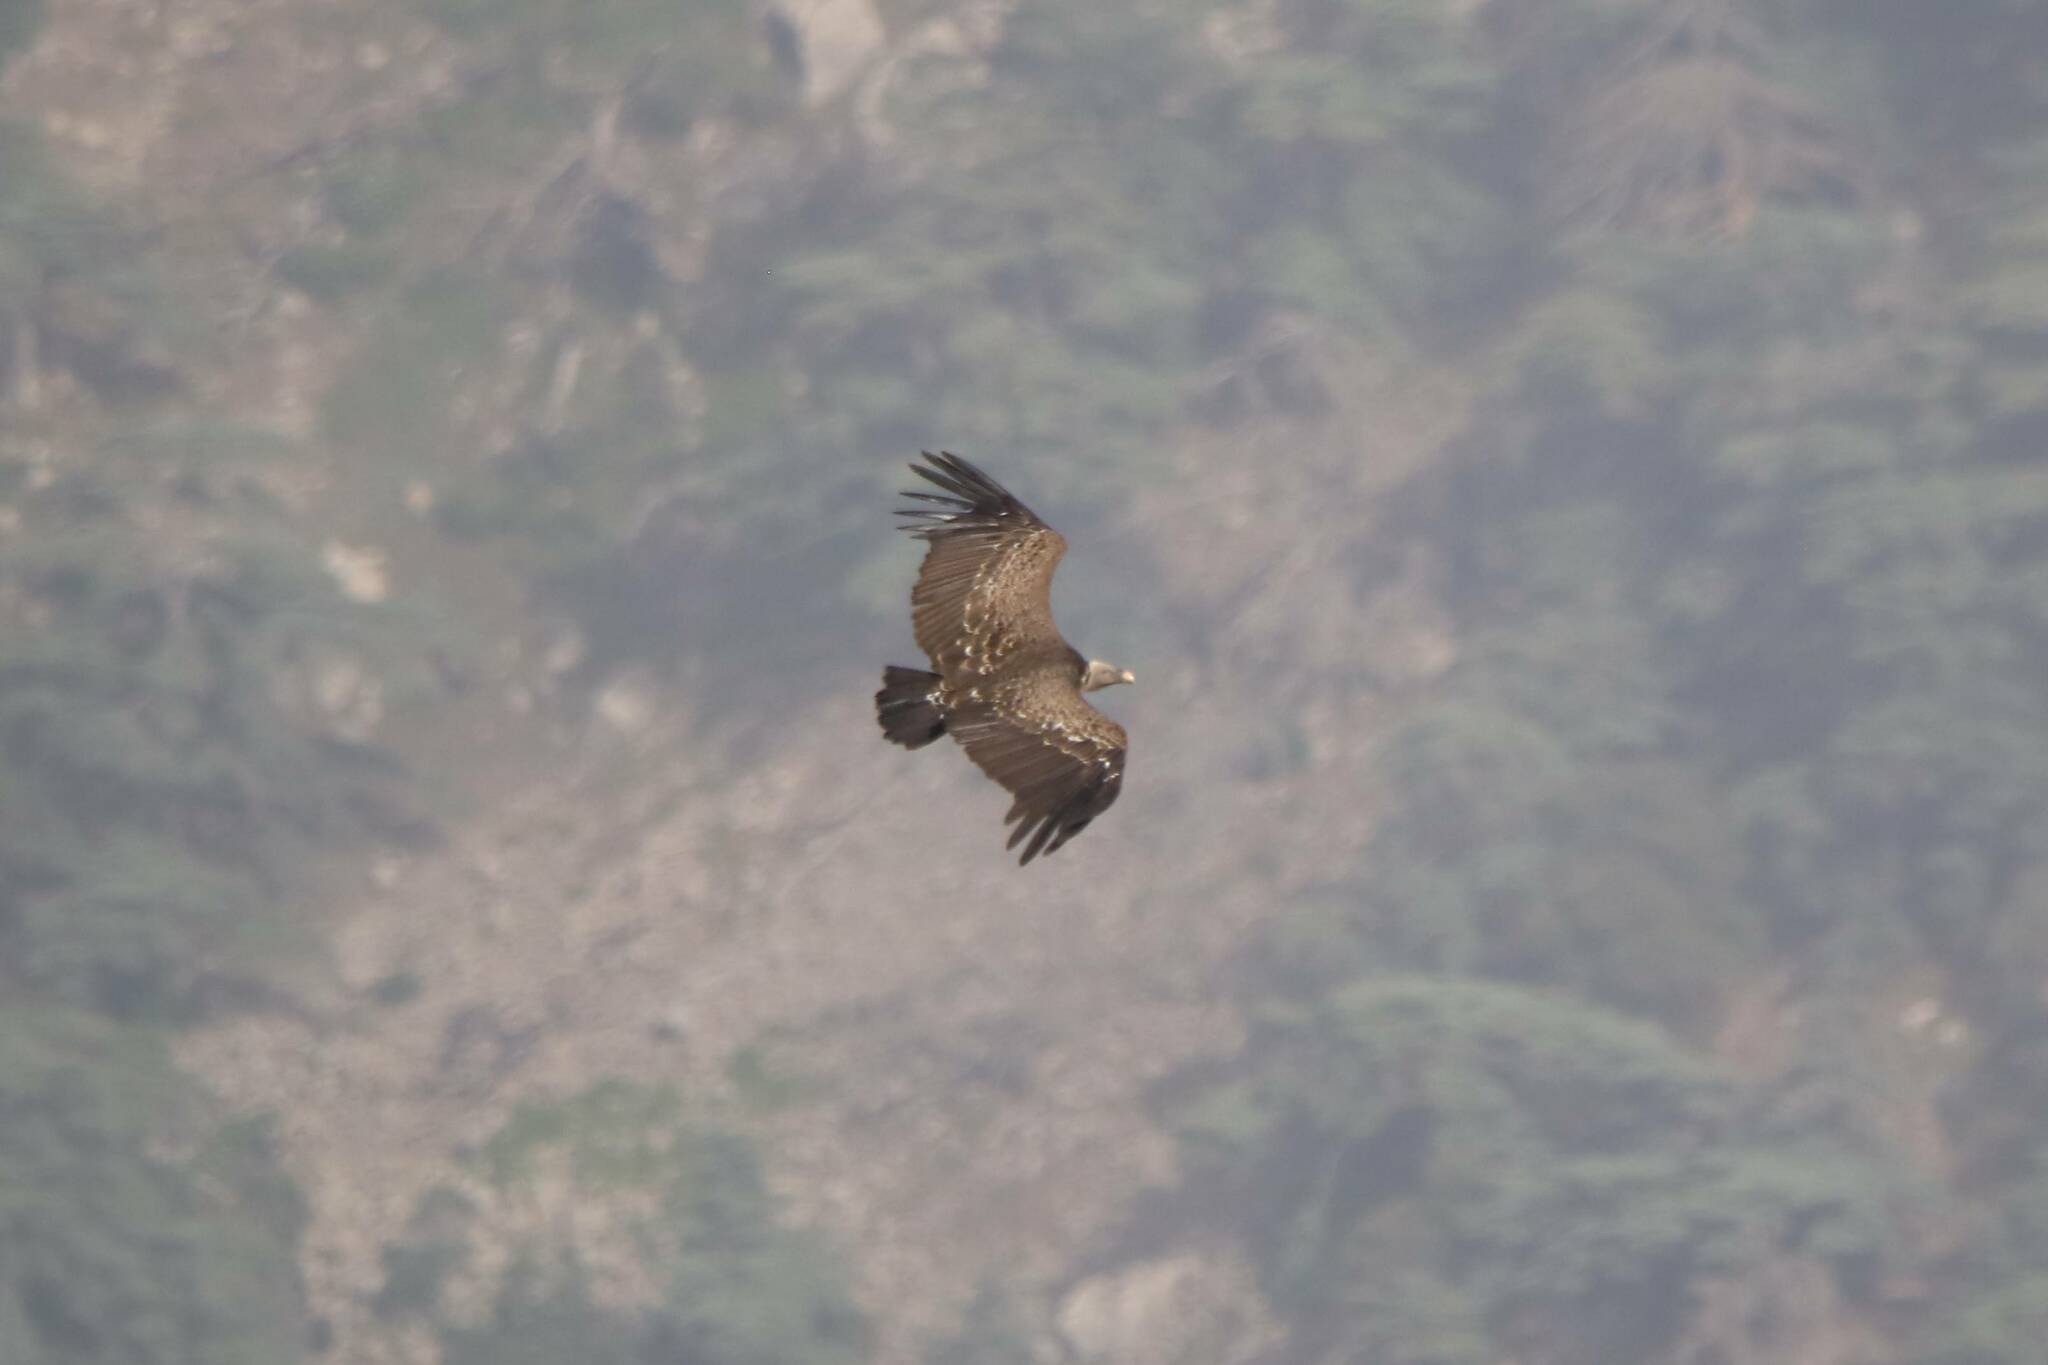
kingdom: Animalia
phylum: Chordata
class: Aves
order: Accipitriformes
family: Accipitridae
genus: Gyps
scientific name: Gyps rueppellii
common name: Rüppell's vulture
